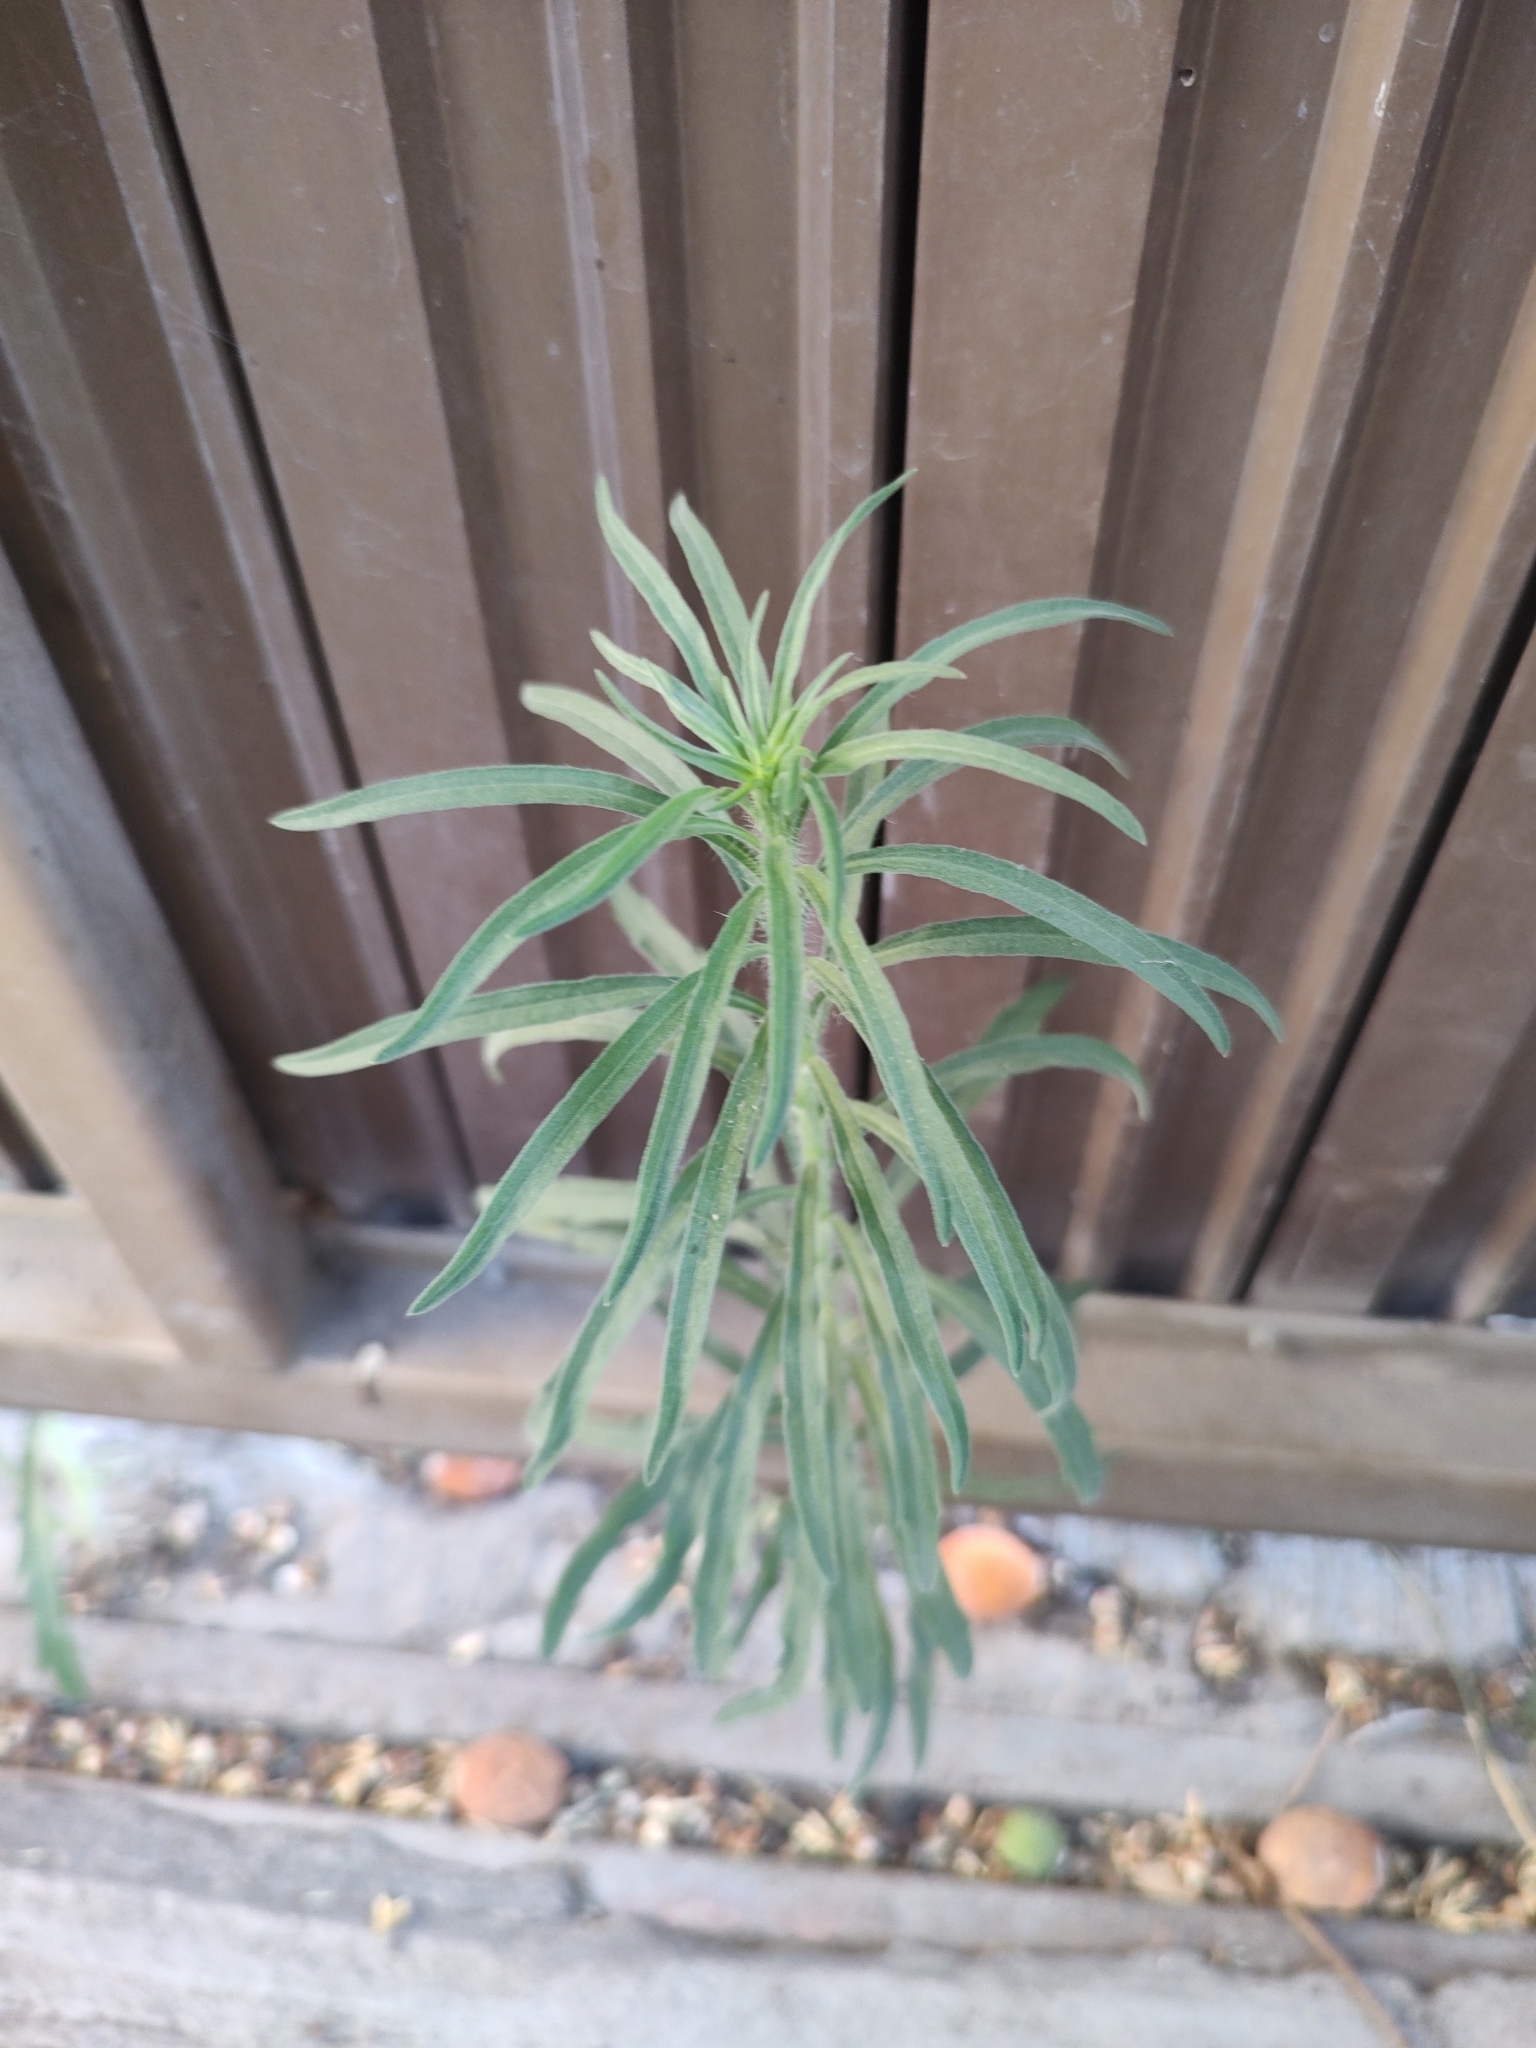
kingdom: Plantae
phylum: Tracheophyta
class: Magnoliopsida
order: Asterales
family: Asteraceae
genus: Erigeron
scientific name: Erigeron bonariensis
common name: Argentine fleabane
